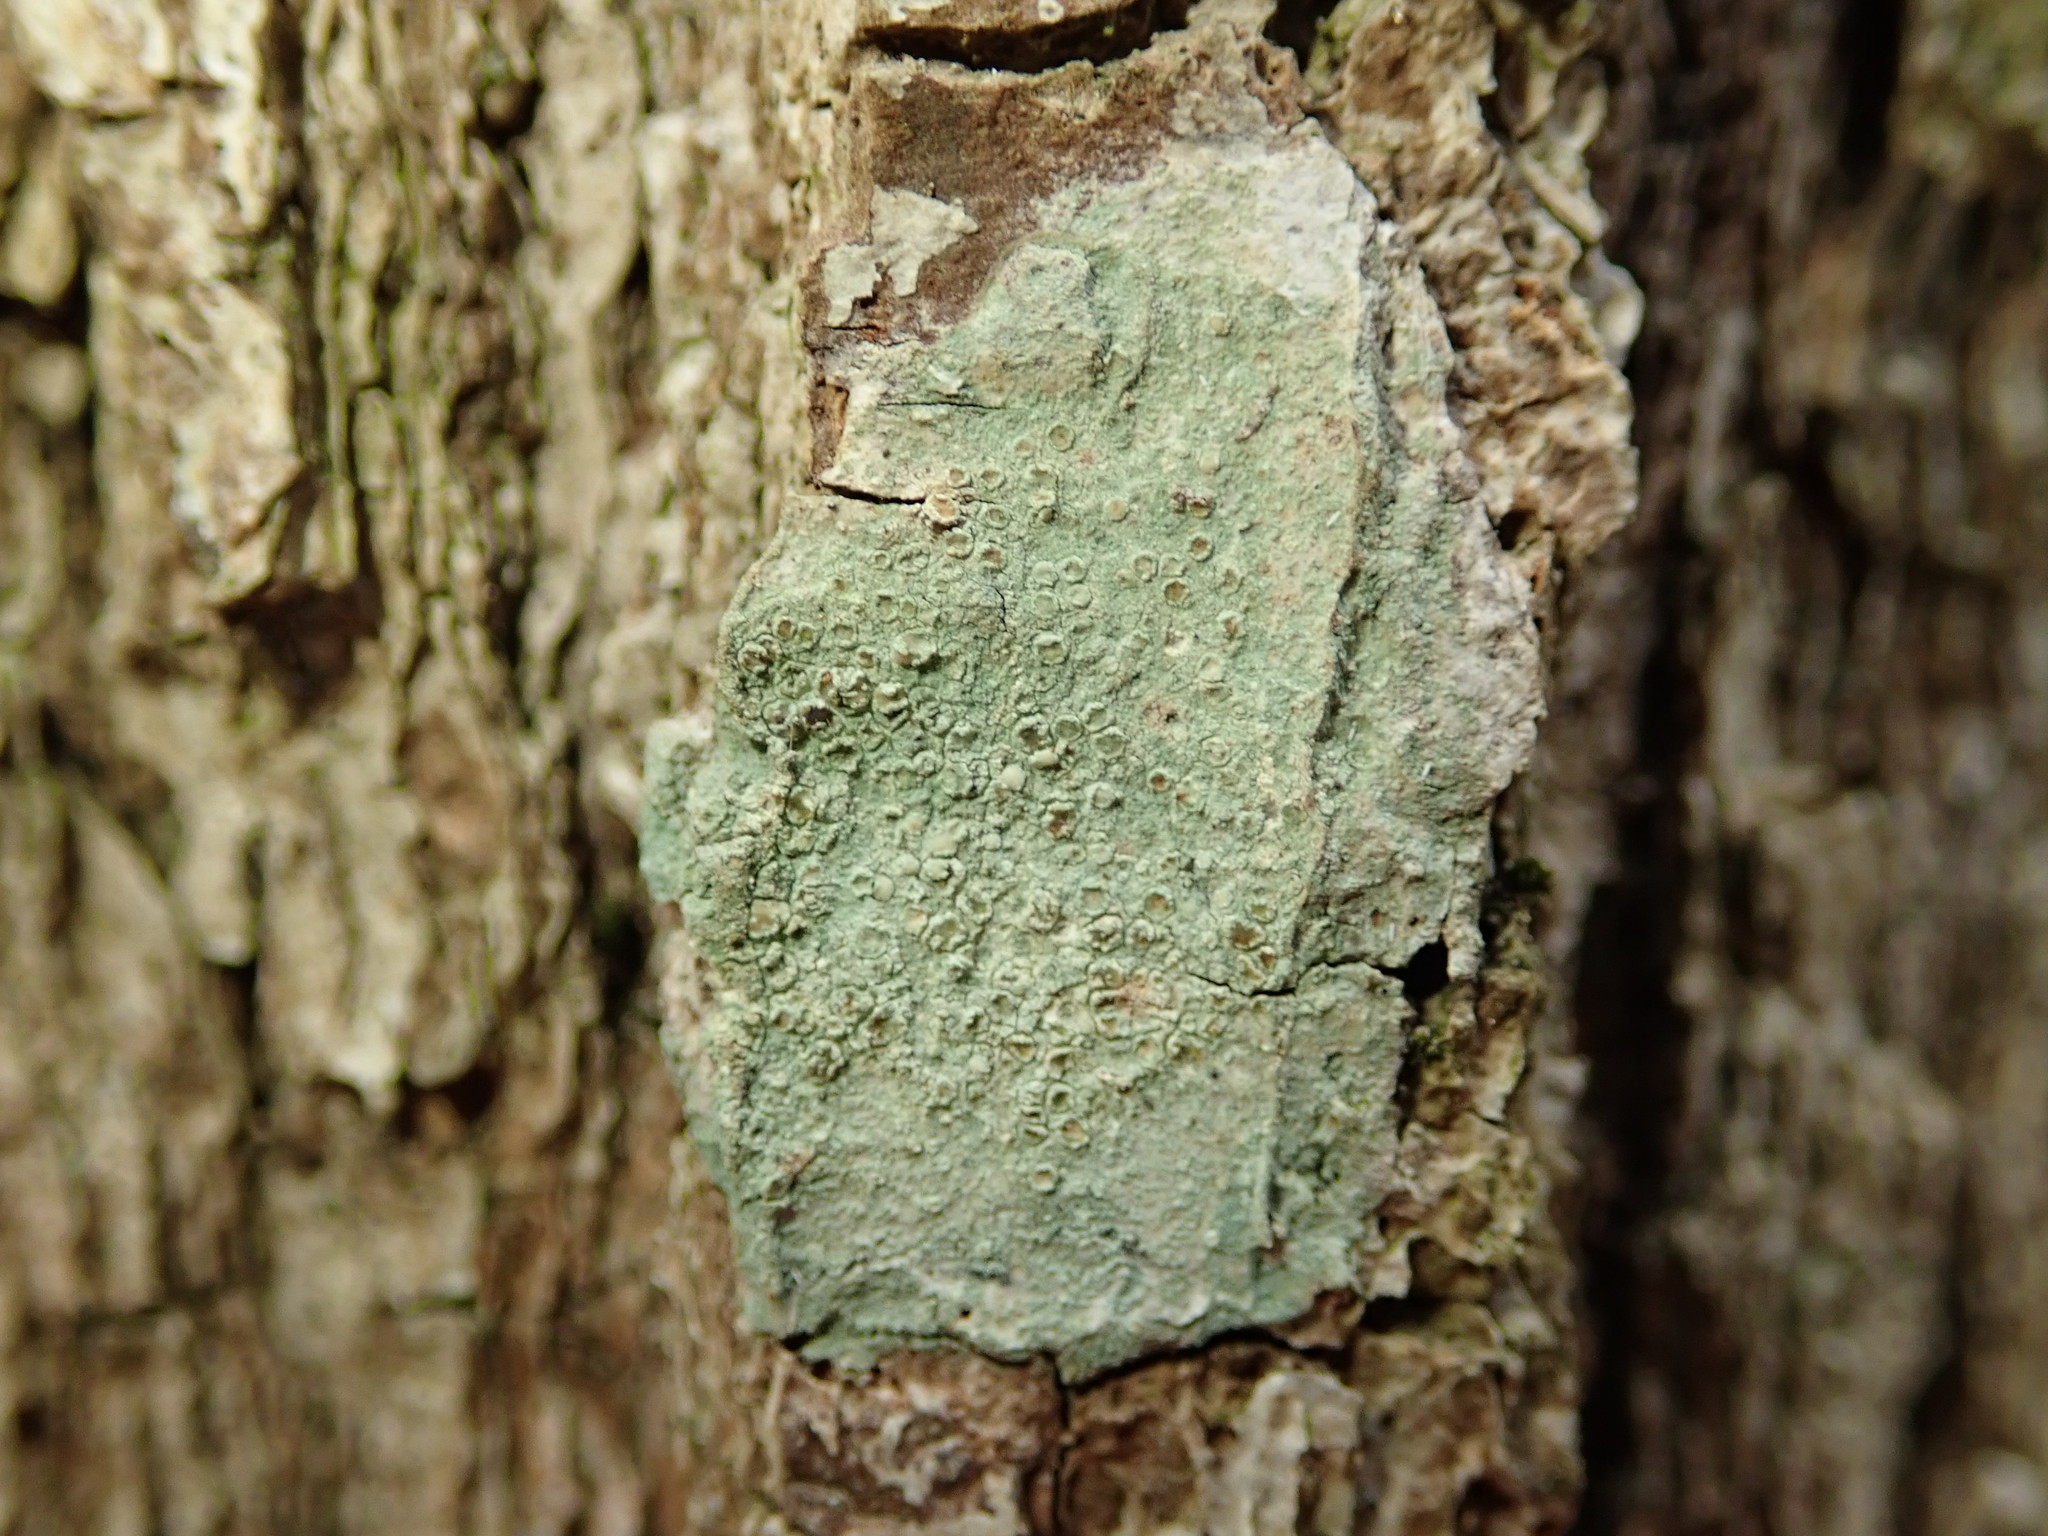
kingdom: Fungi
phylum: Ascomycota
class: Lecanoromycetes
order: Lecanorales
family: Lecanoraceae
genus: Lecanora
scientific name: Lecanora strobilina
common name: Mealy rim-lichen
